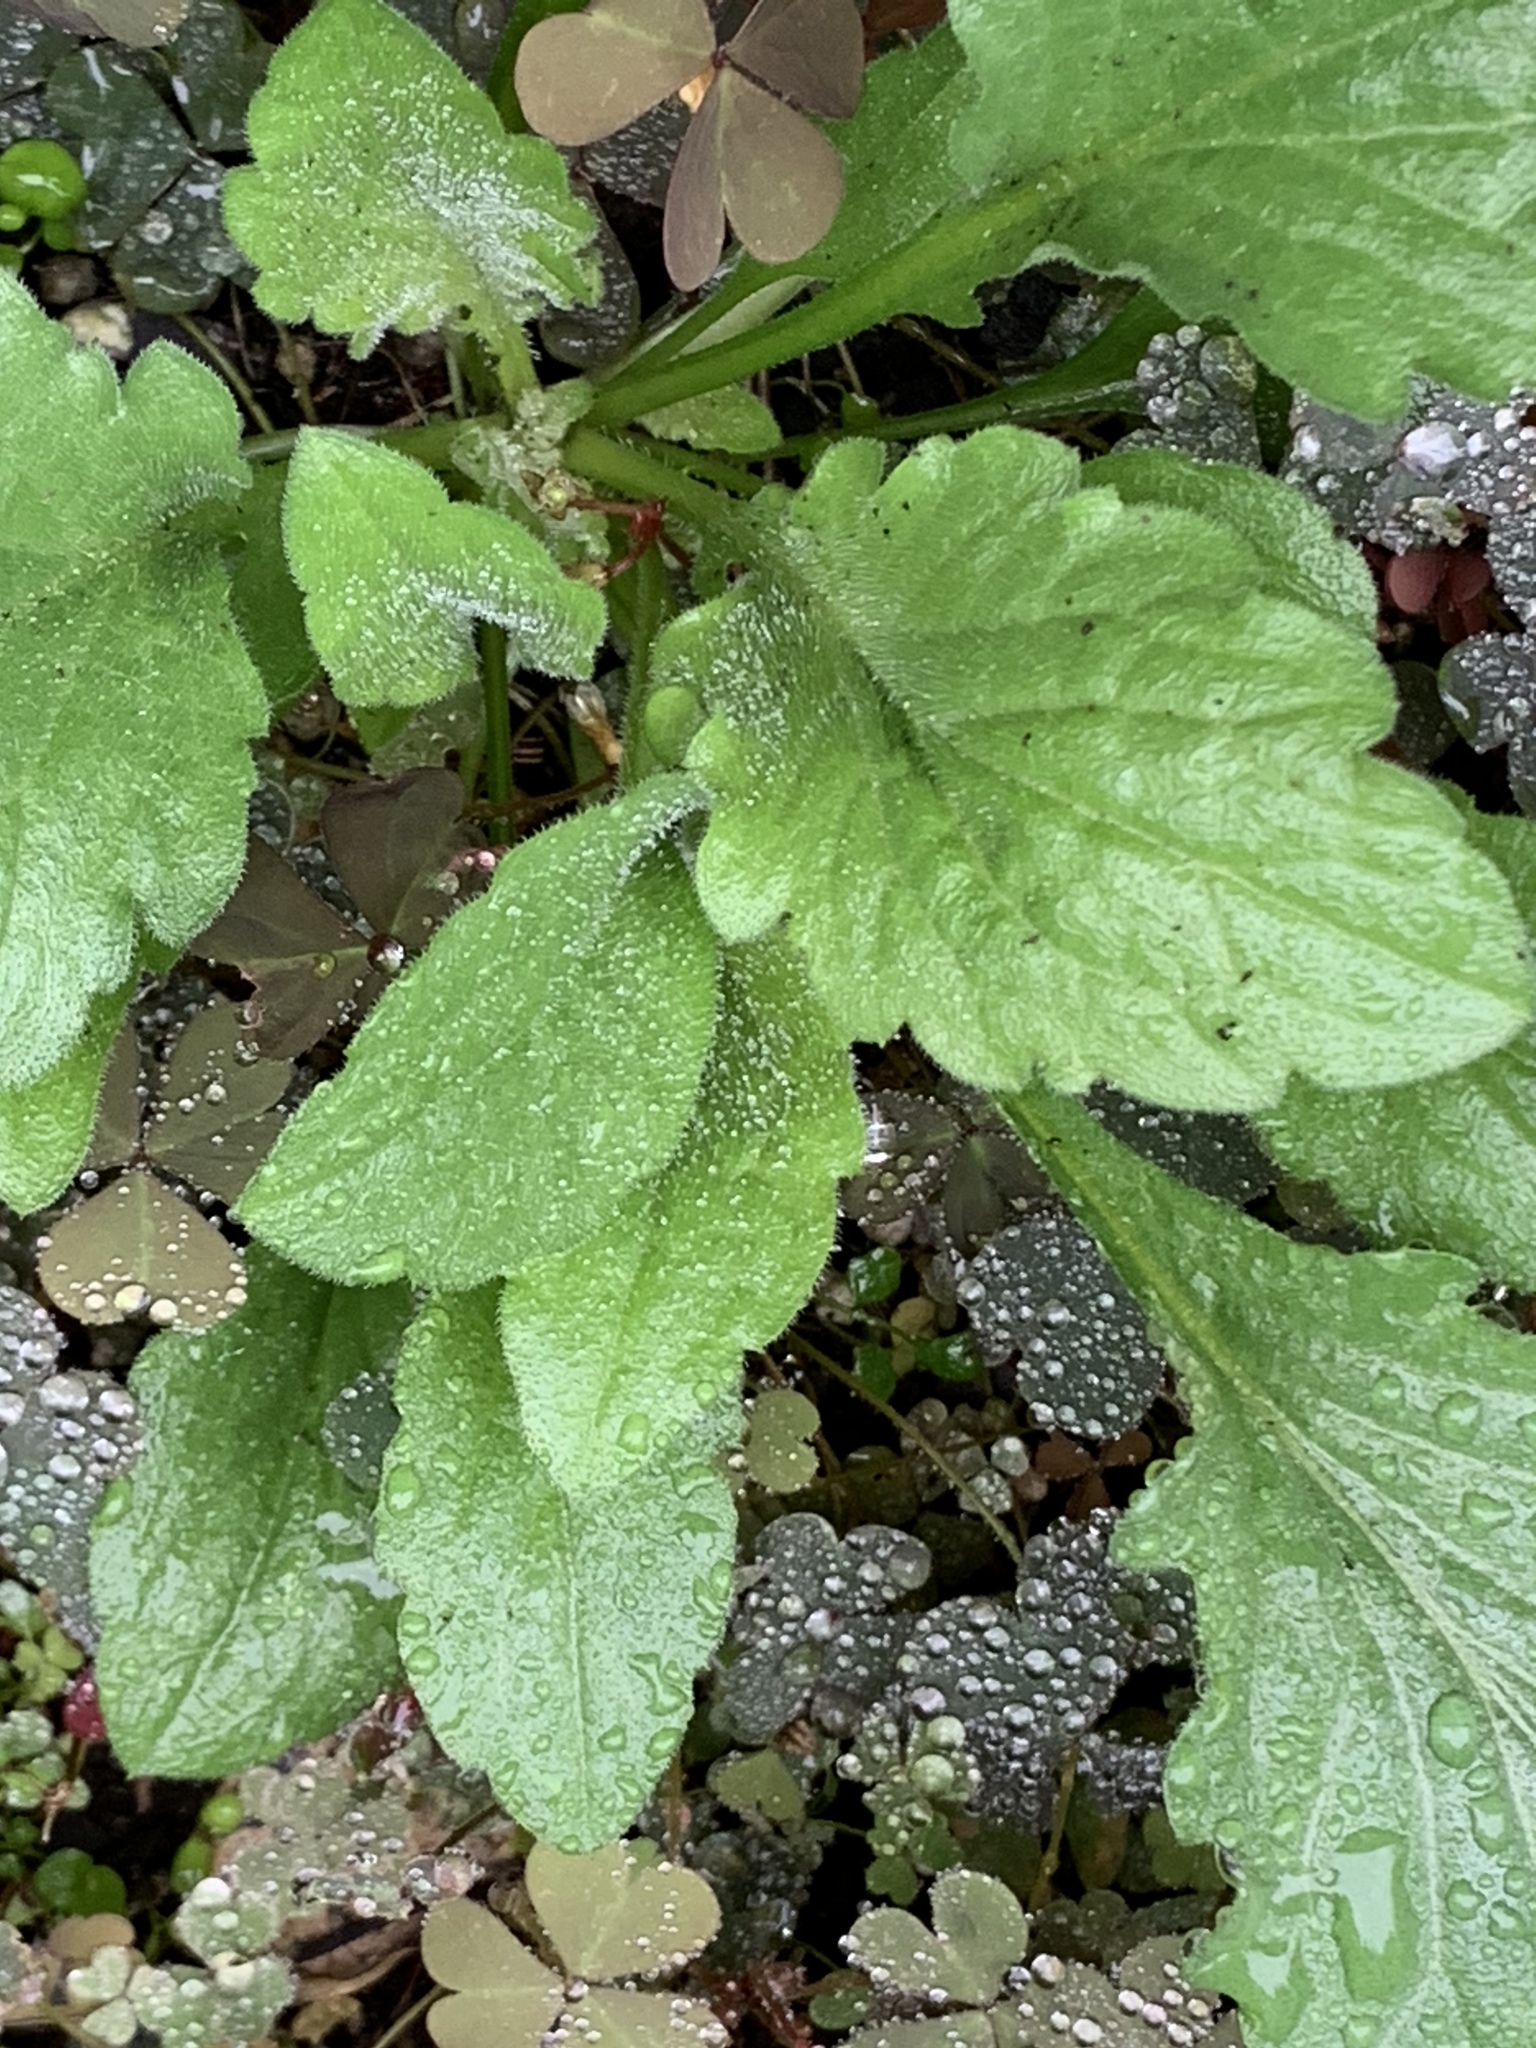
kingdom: Plantae
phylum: Tracheophyta
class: Magnoliopsida
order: Asterales
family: Asteraceae
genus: Erigeron
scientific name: Erigeron annuus
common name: Tall fleabane
